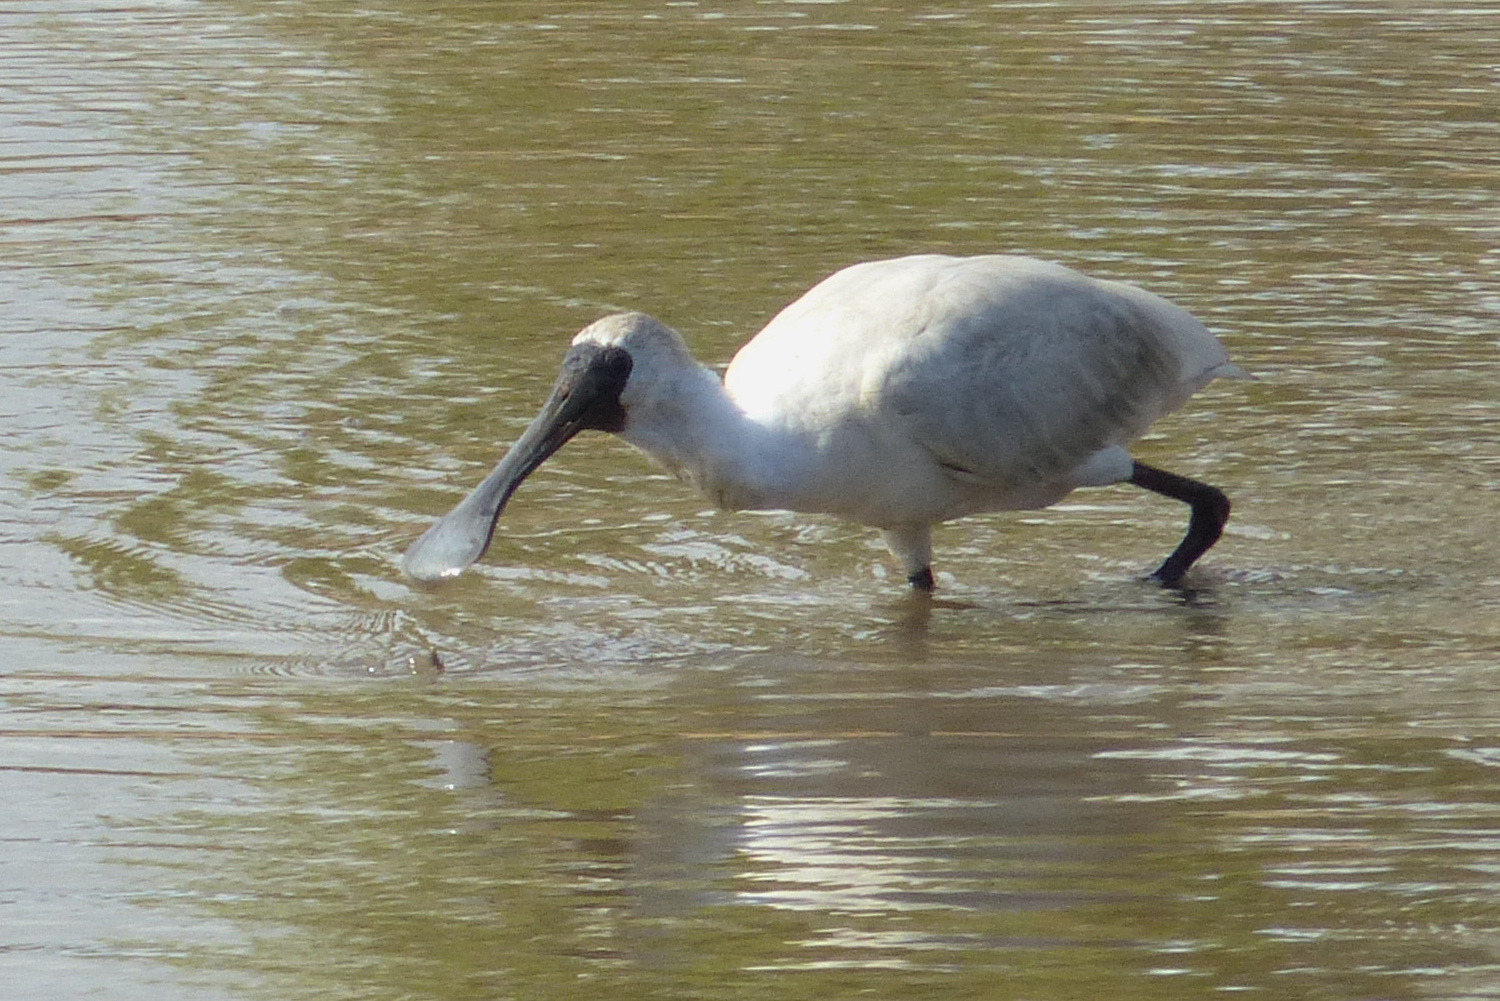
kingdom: Animalia
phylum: Chordata
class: Aves
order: Pelecaniformes
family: Threskiornithidae
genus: Platalea
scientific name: Platalea regia
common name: Royal spoonbill
